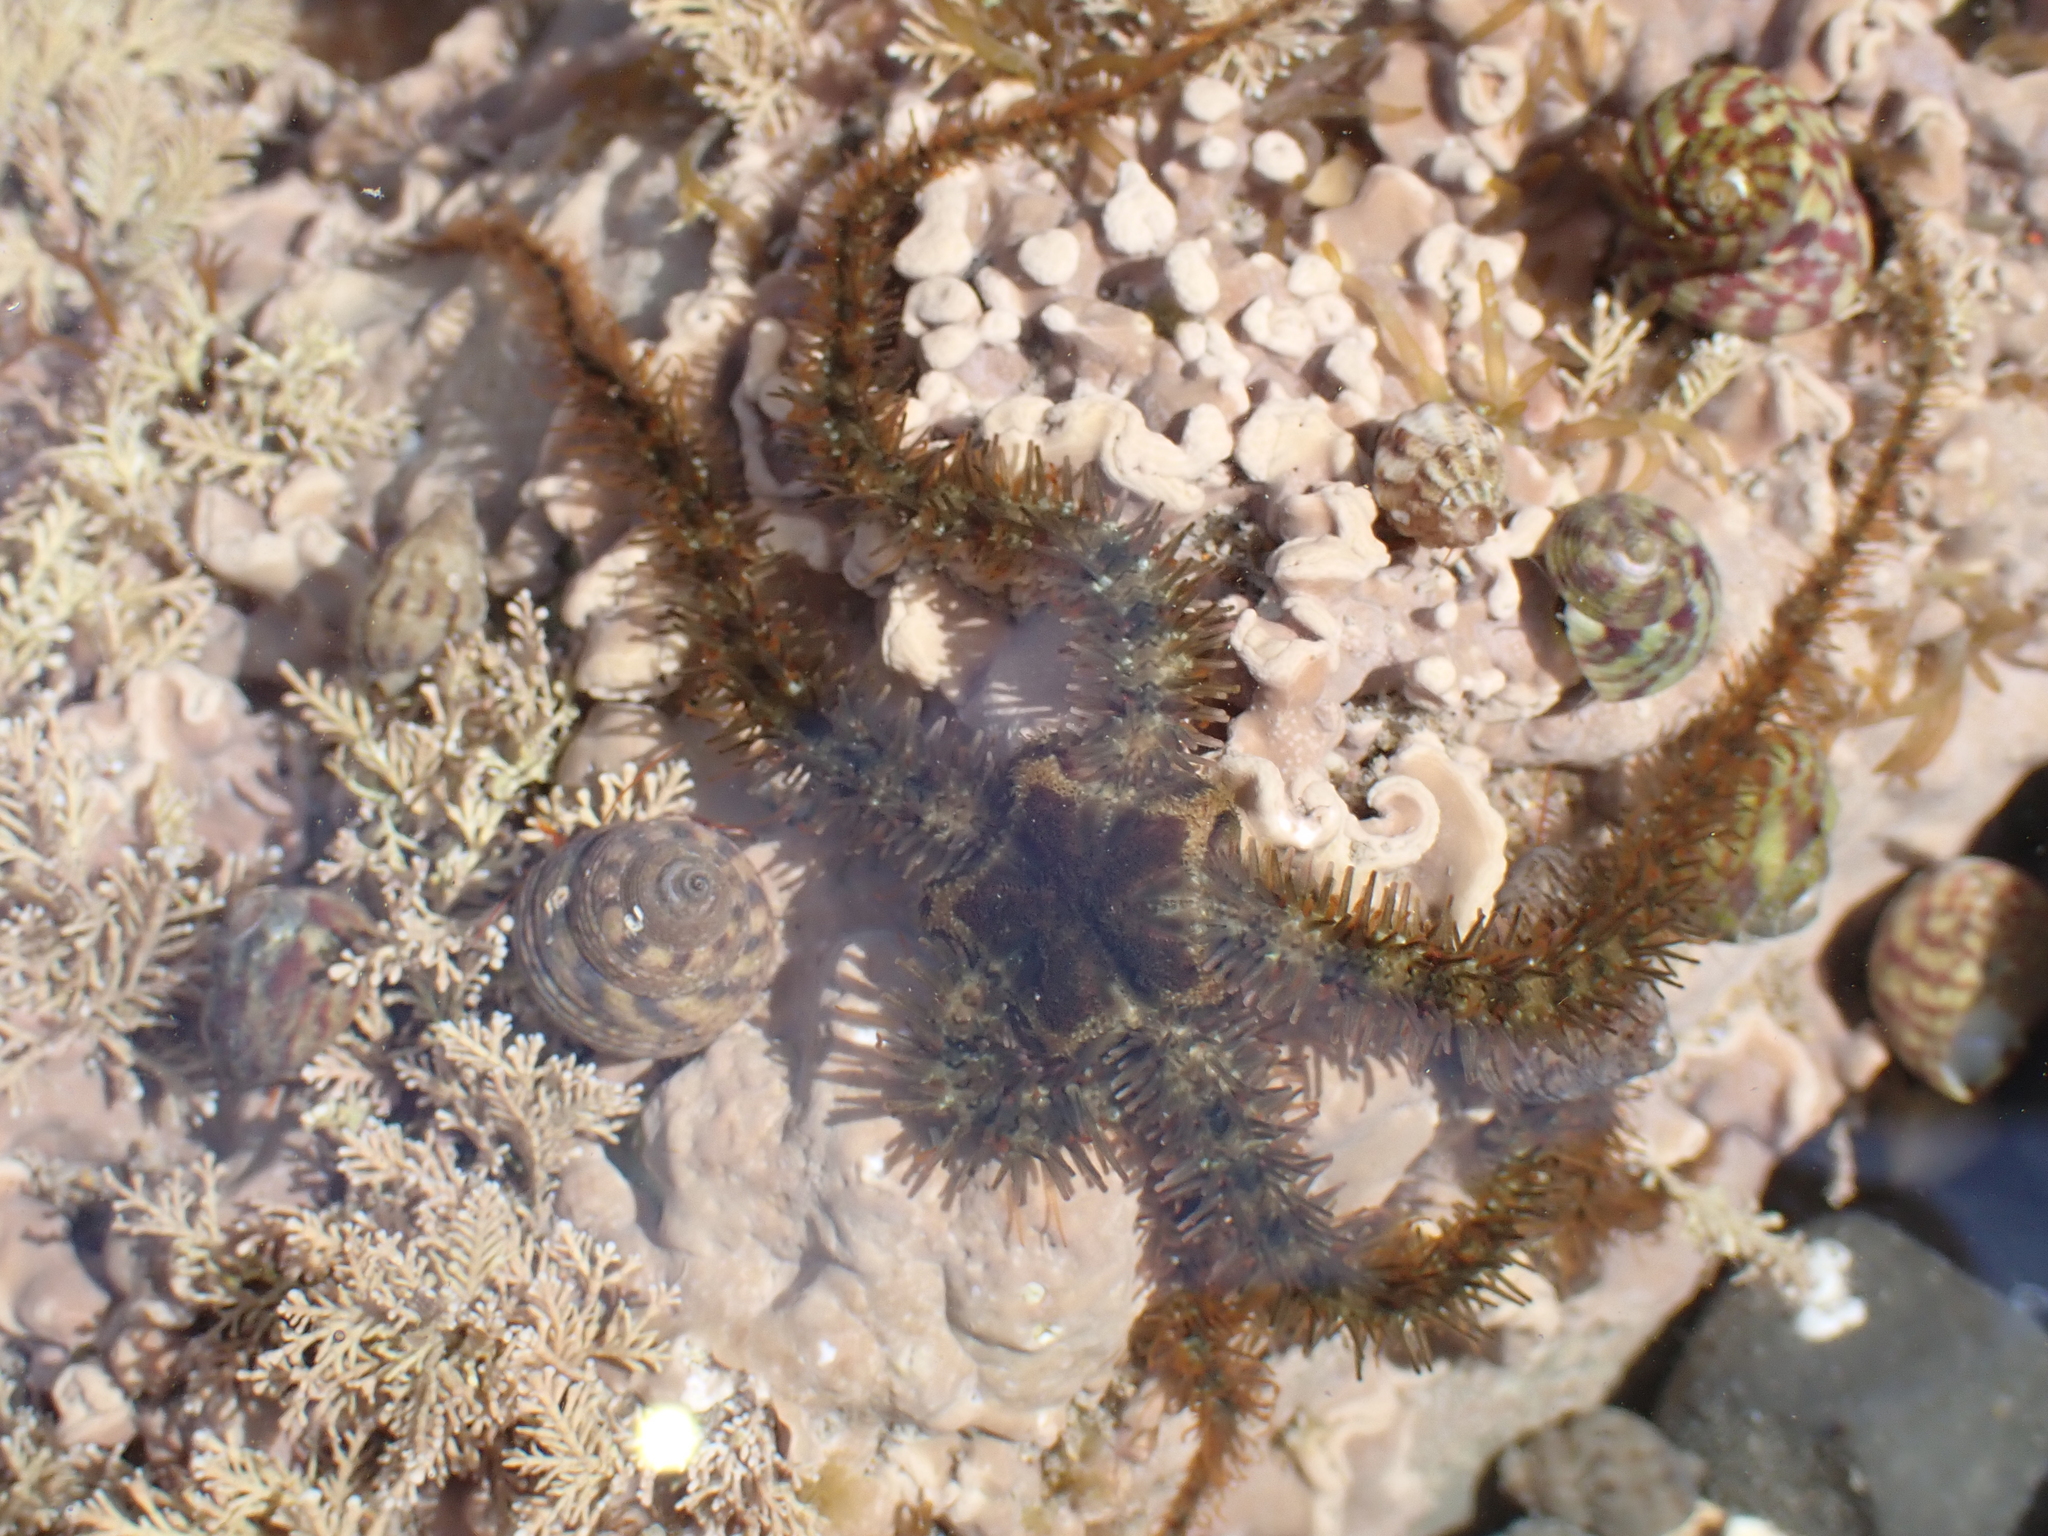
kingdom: Animalia
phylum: Echinodermata
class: Ophiuroidea
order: Amphilepidida
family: Ophiotrichidae
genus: Ophiothrix
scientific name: Ophiothrix fragilis
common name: Common brittlestar
